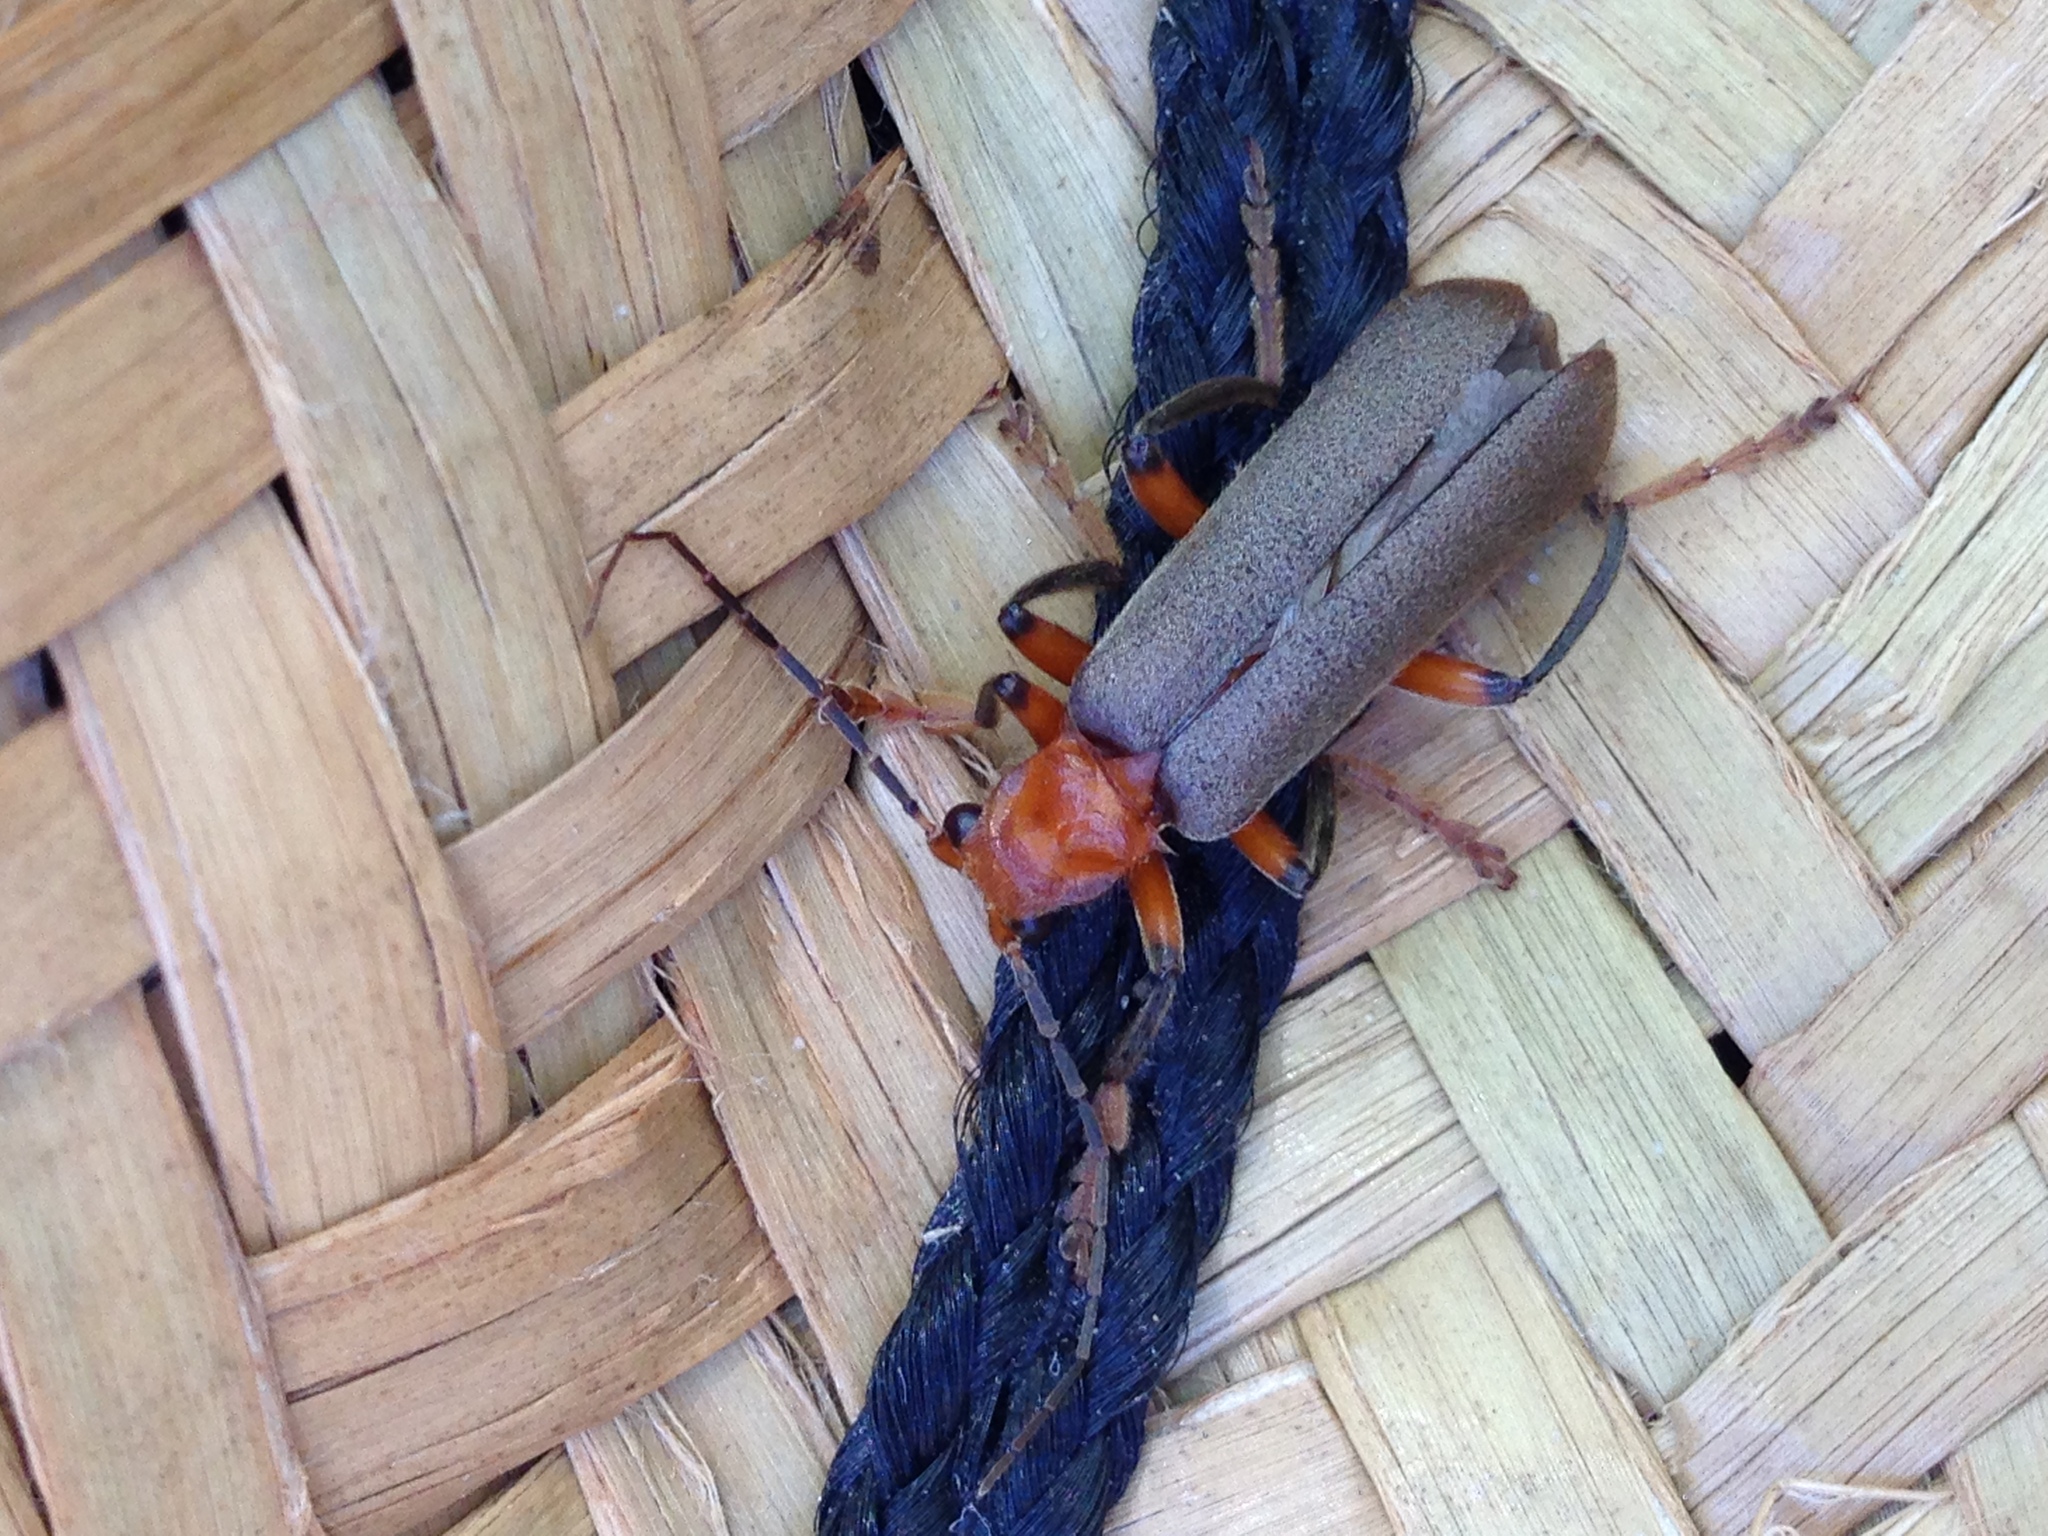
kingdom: Animalia
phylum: Arthropoda
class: Insecta
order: Coleoptera
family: Cantharidae
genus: Pacificanthia
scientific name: Pacificanthia consors
